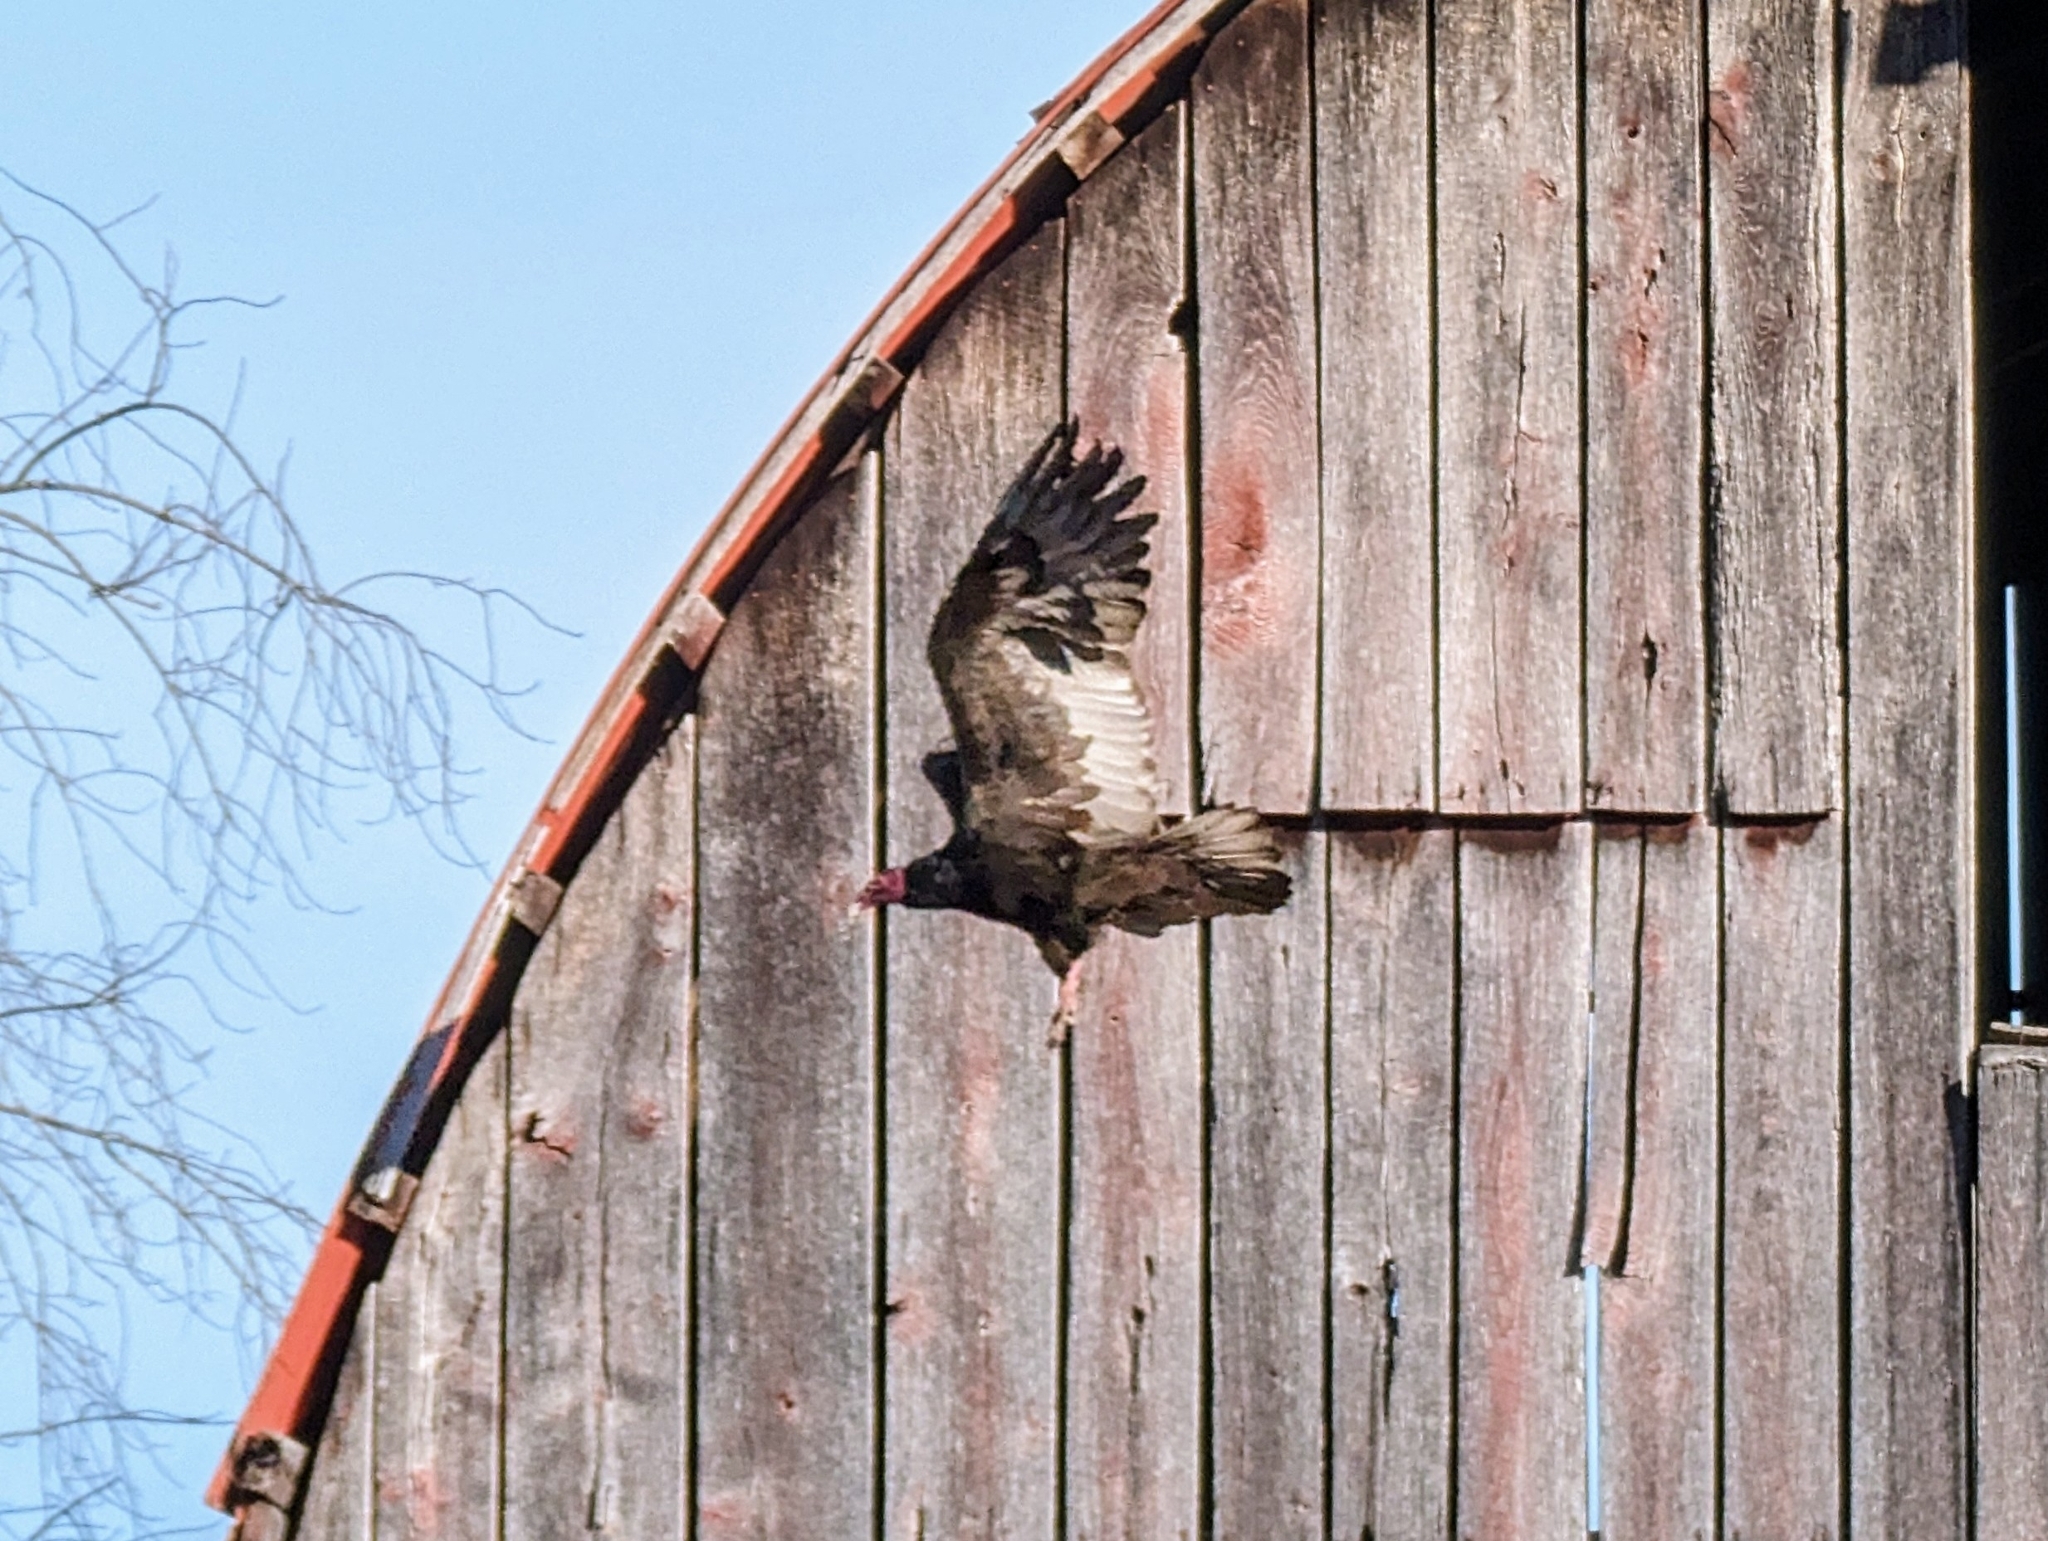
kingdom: Animalia
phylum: Chordata
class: Aves
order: Accipitriformes
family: Cathartidae
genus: Cathartes
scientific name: Cathartes aura
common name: Turkey vulture
